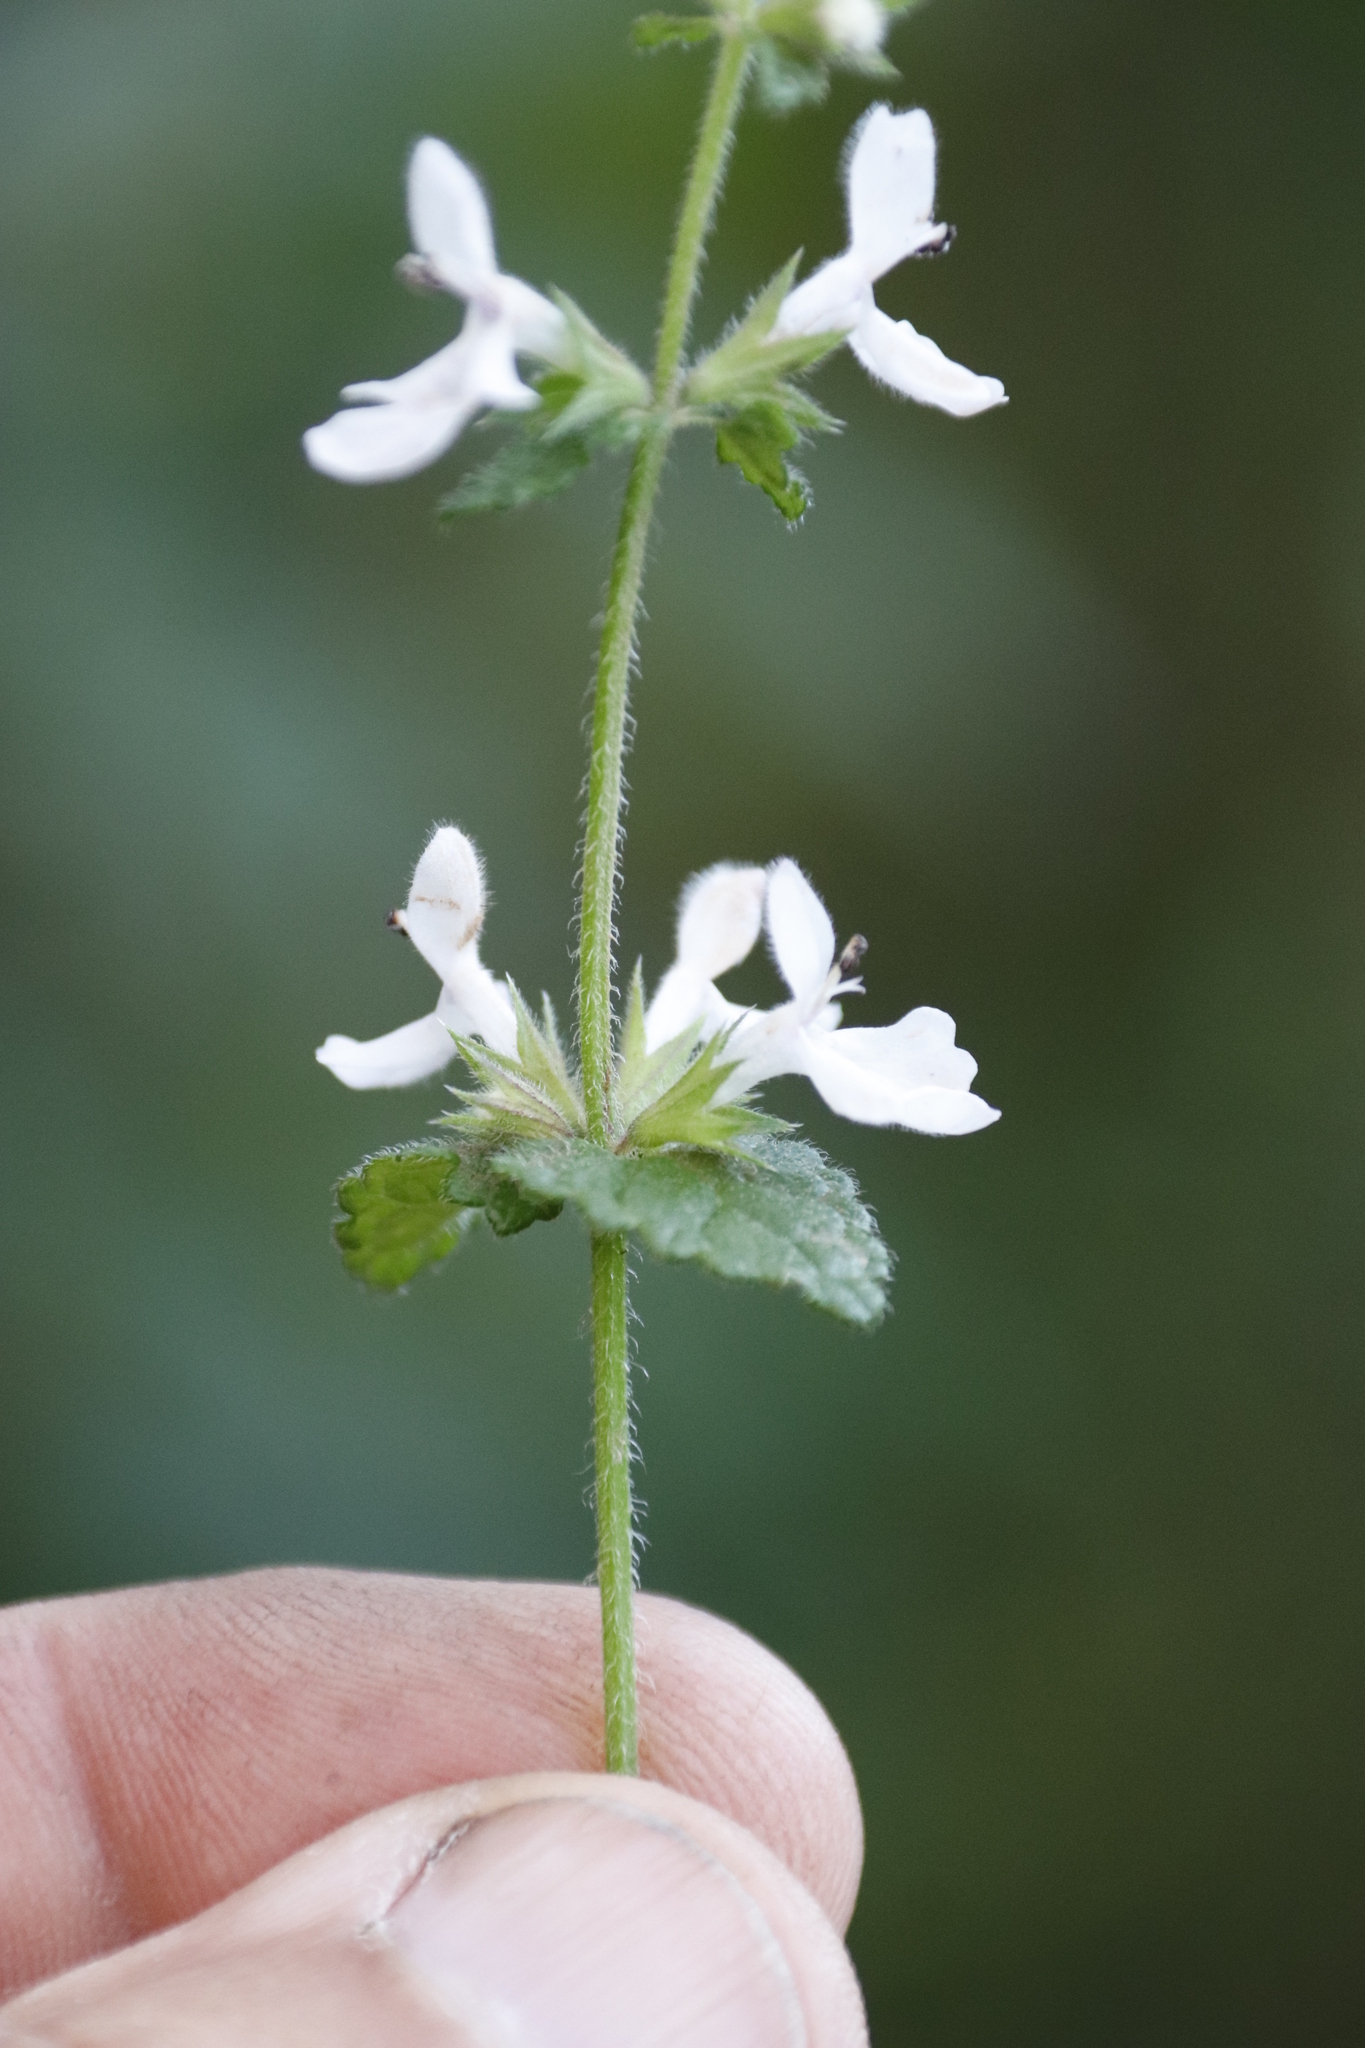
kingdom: Plantae
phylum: Tracheophyta
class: Magnoliopsida
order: Lamiales
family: Lamiaceae
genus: Stachys
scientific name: Stachys aethiopica
